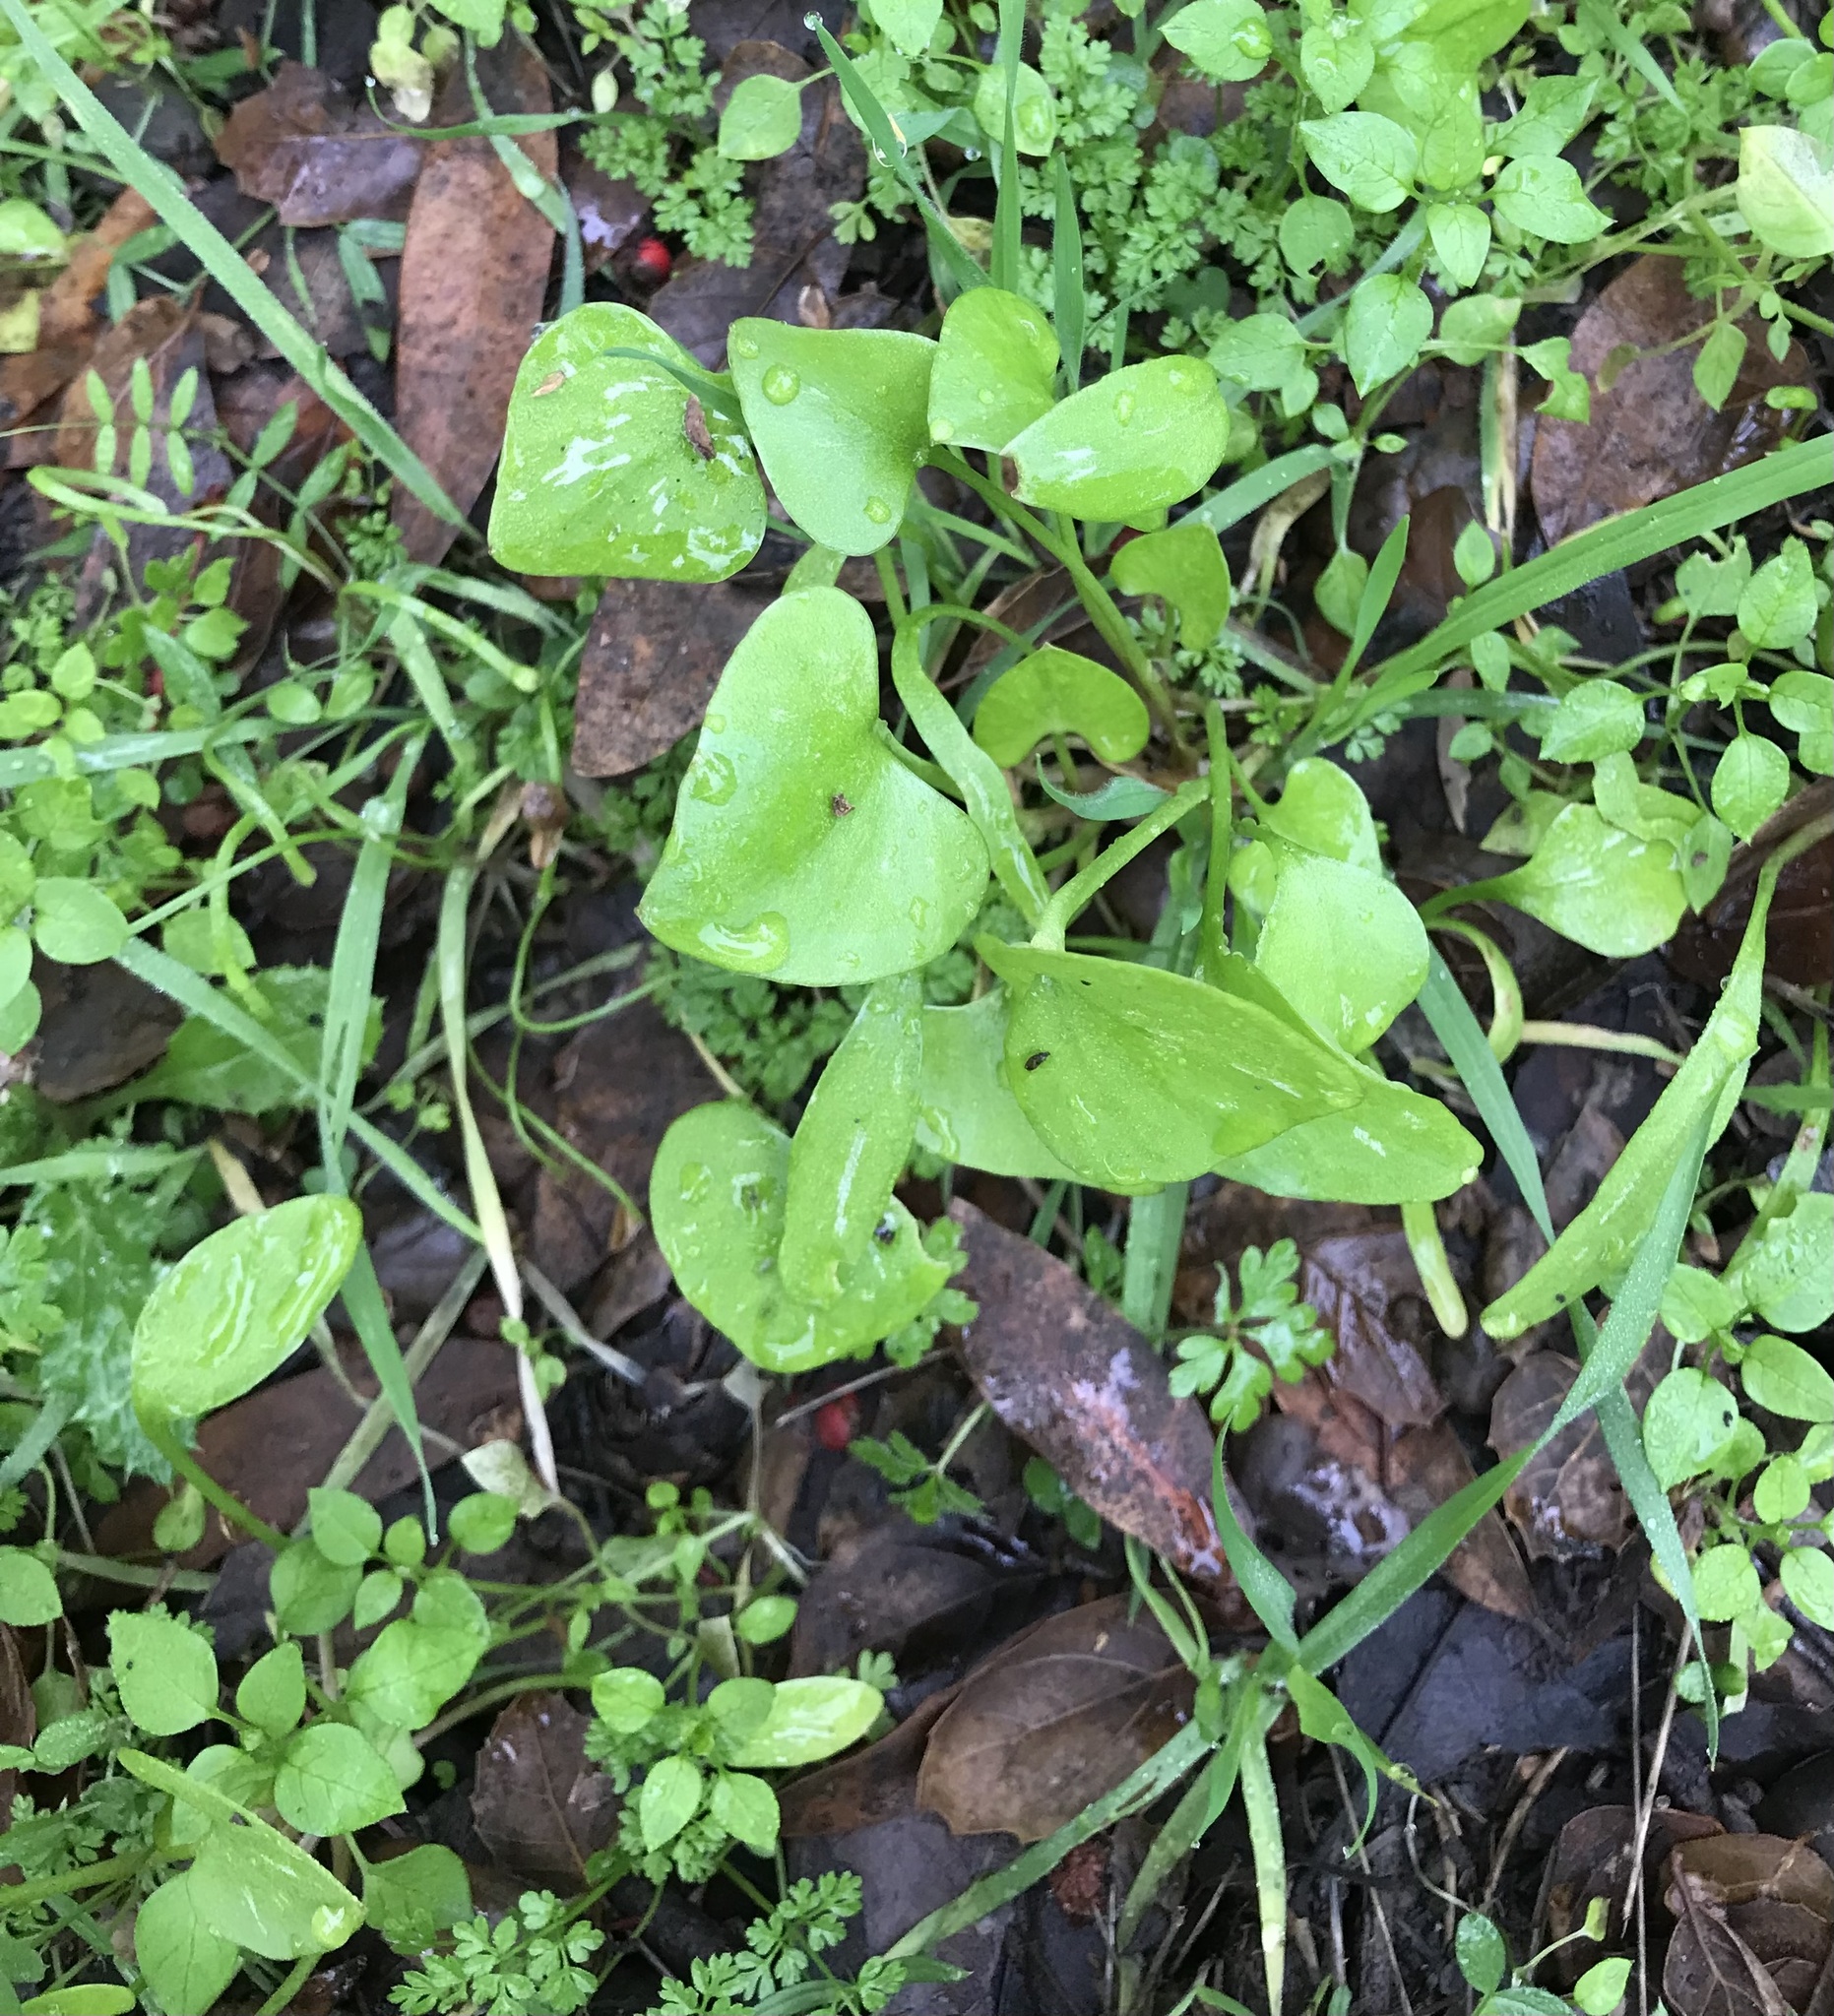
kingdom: Plantae
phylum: Tracheophyta
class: Magnoliopsida
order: Caryophyllales
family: Montiaceae
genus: Claytonia
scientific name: Claytonia perfoliata
